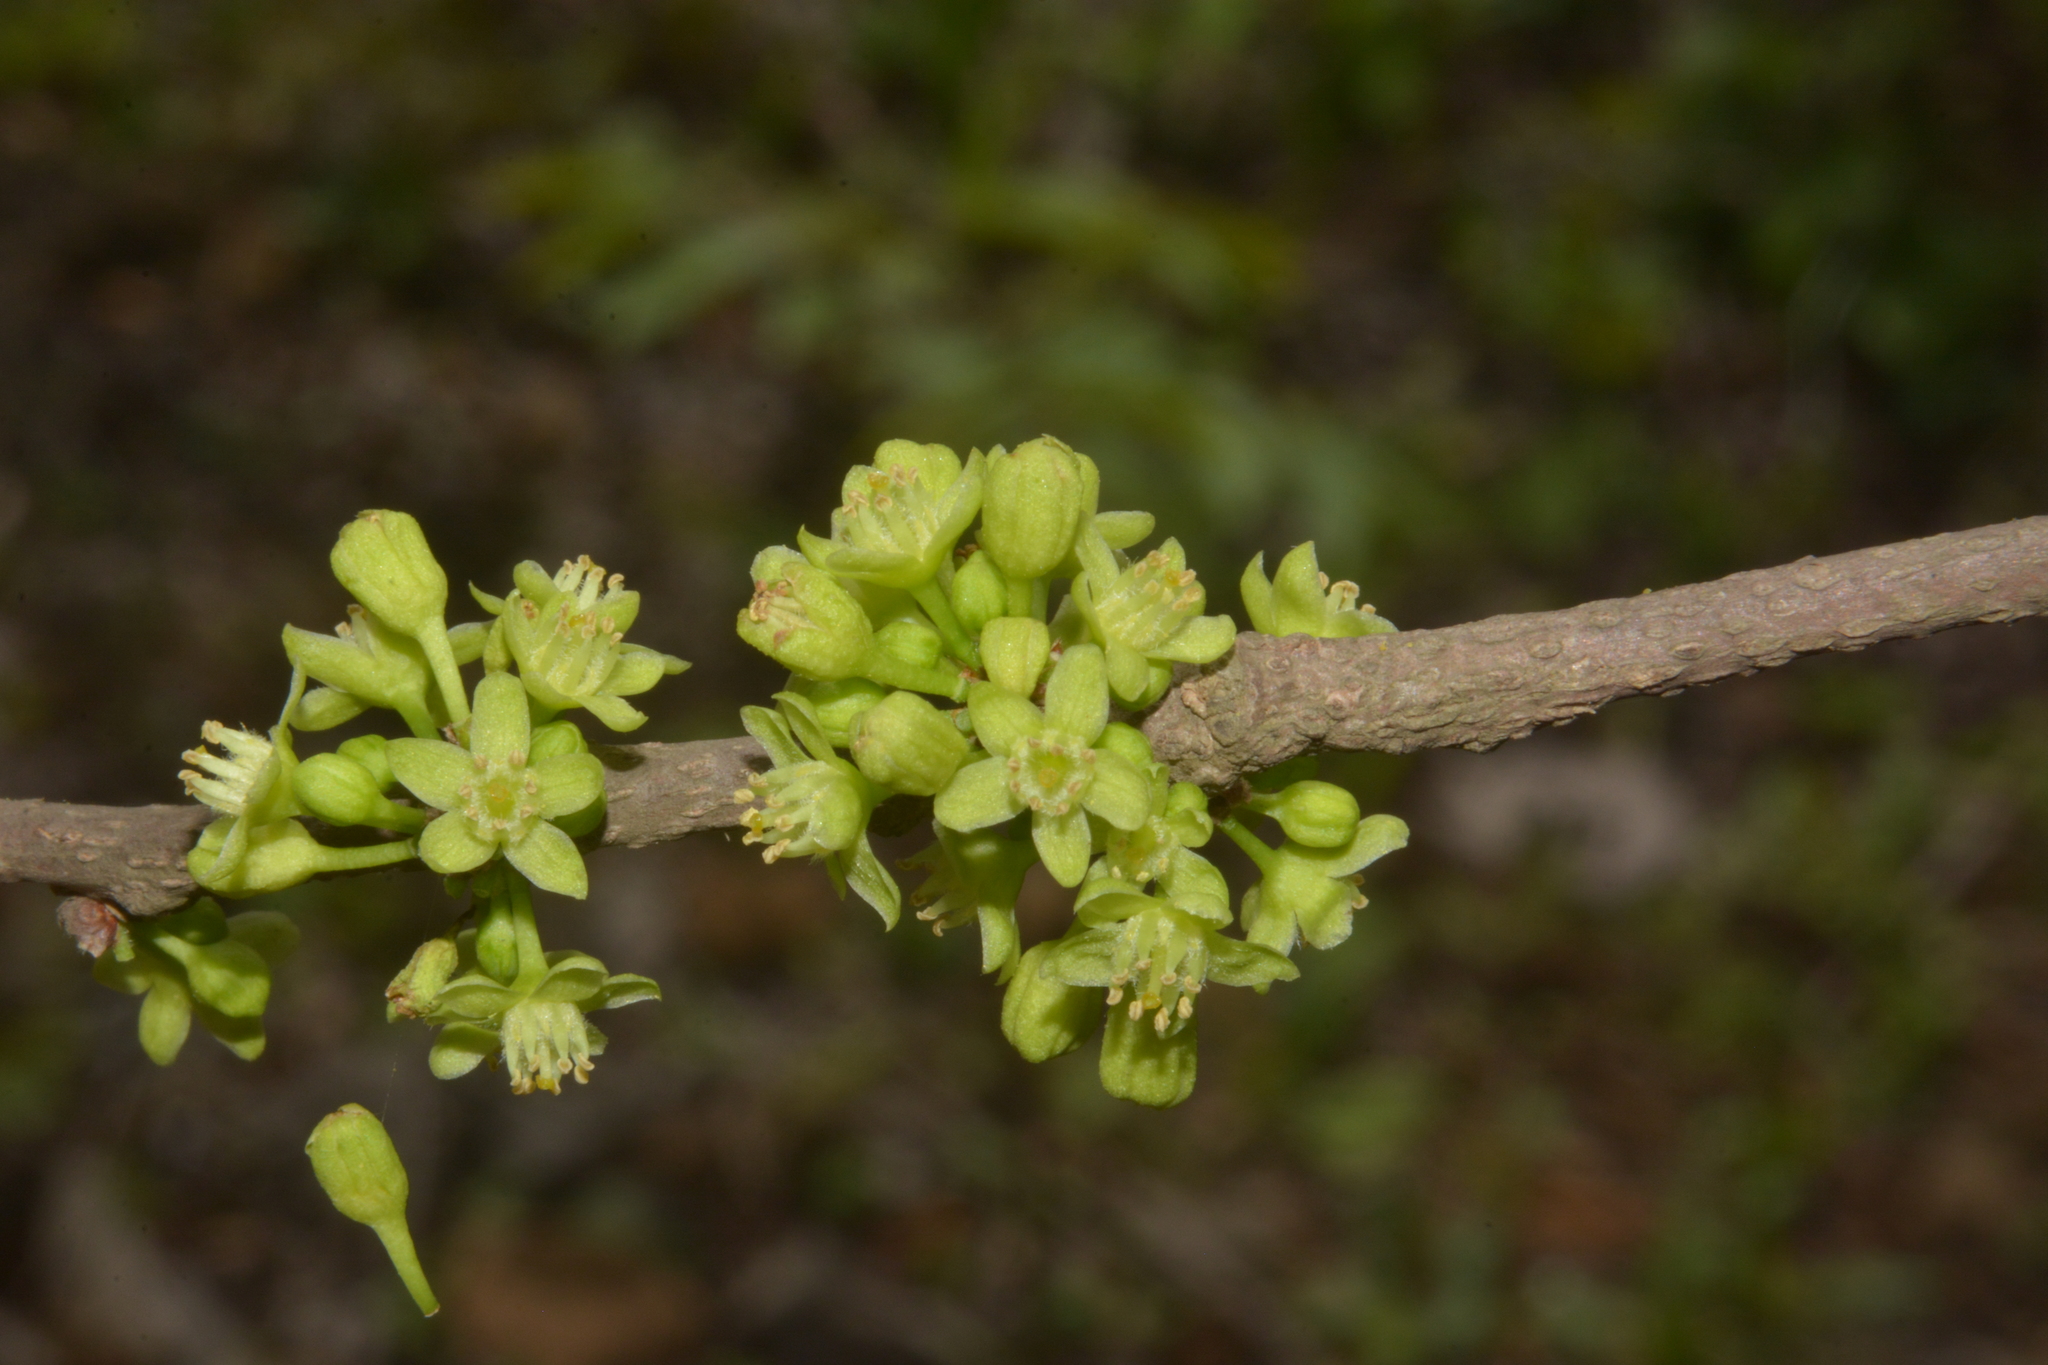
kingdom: Plantae
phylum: Tracheophyta
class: Magnoliopsida
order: Malpighiales
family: Salicaceae
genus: Casearia
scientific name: Casearia graveolens
